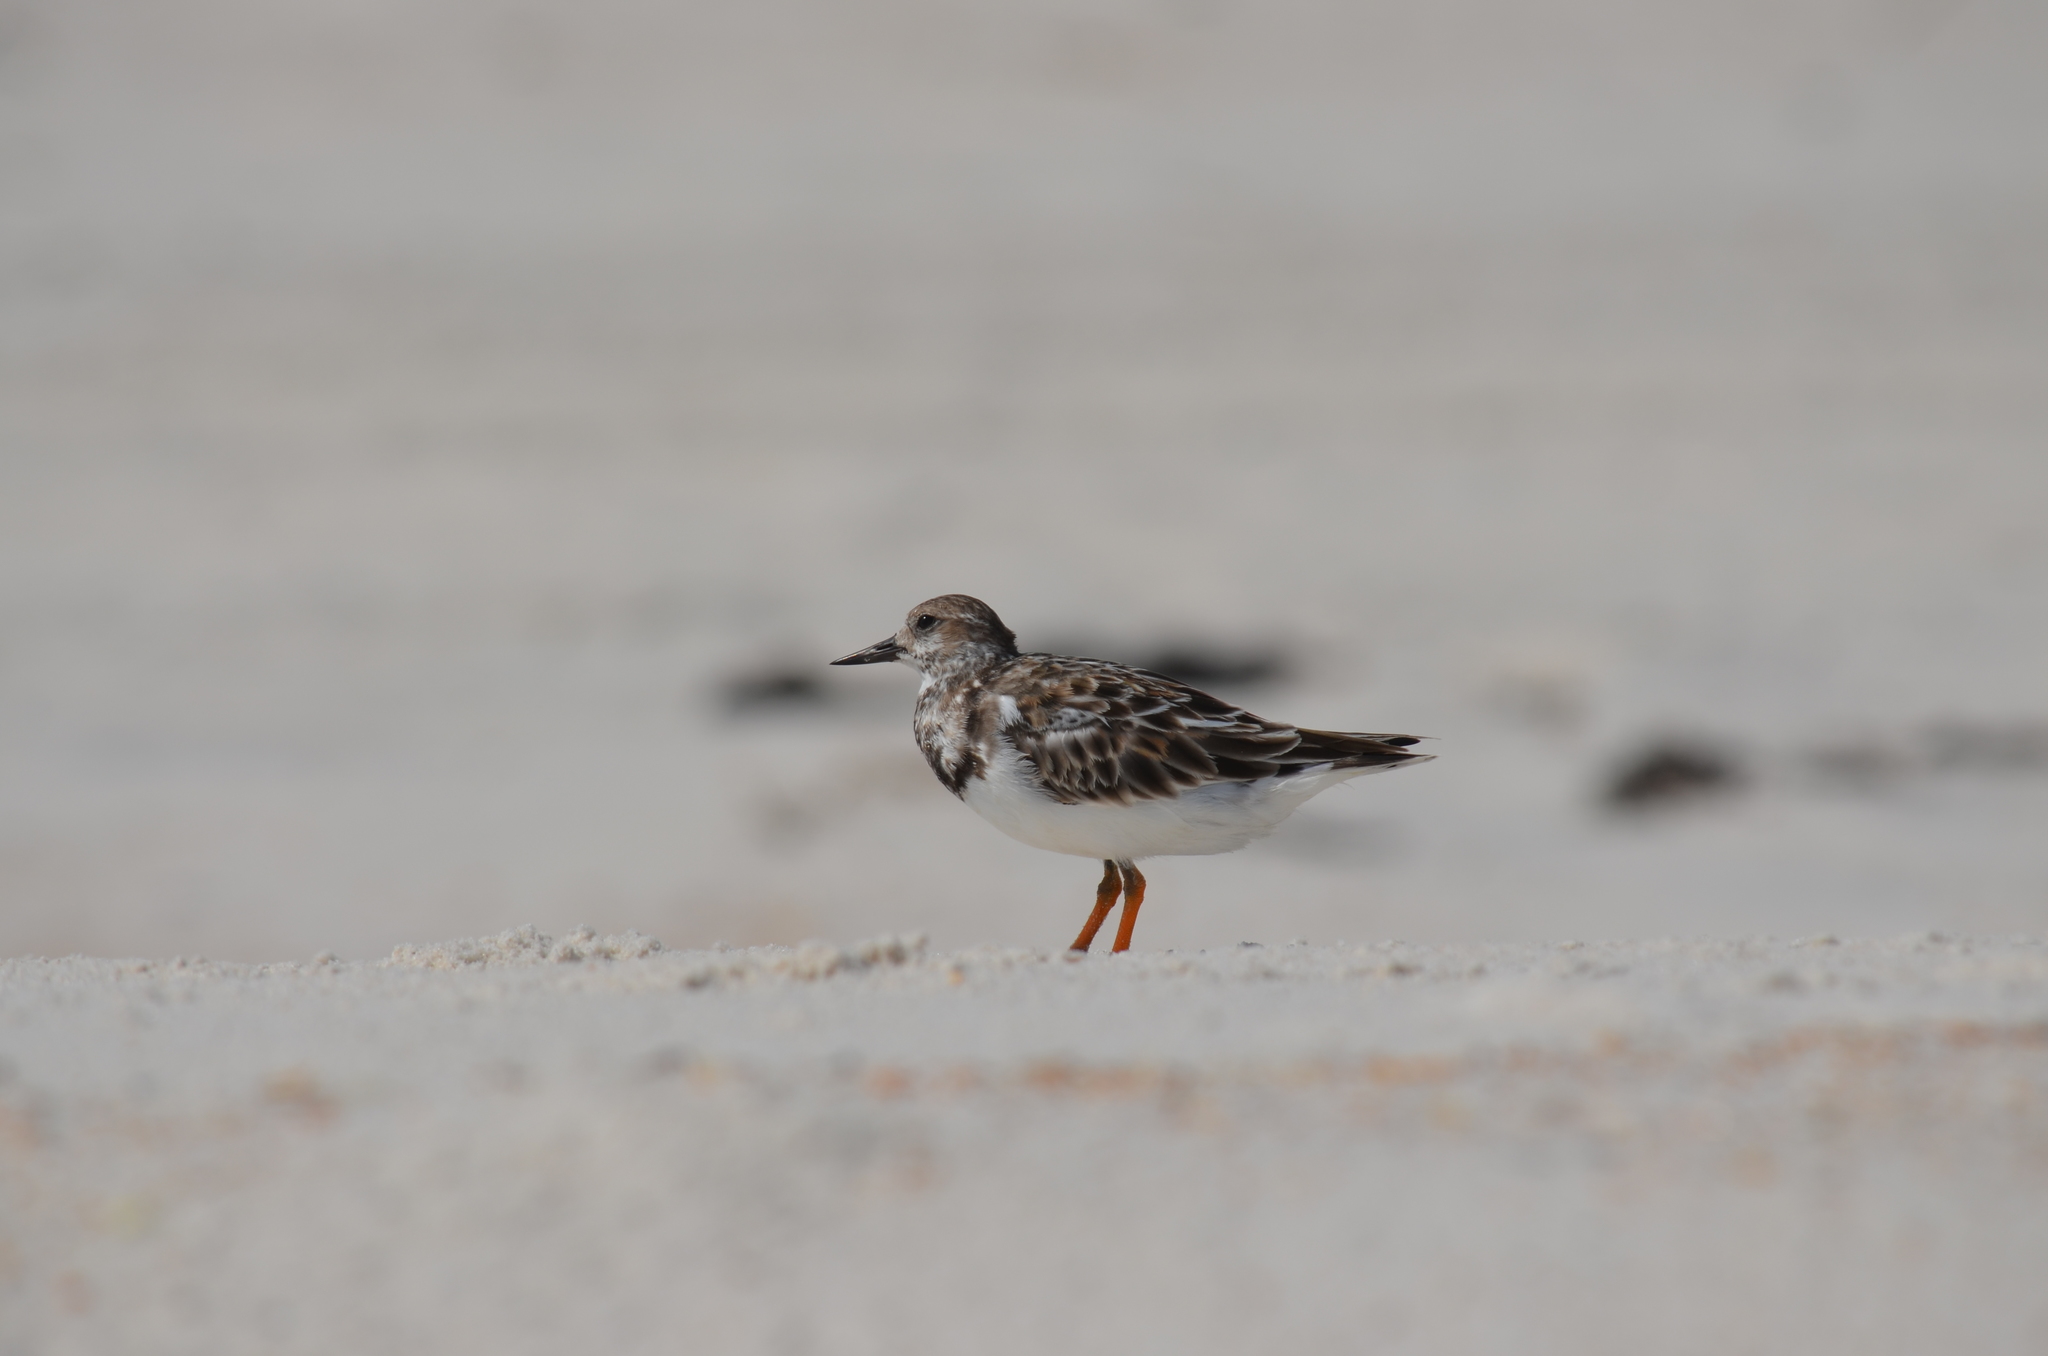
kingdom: Animalia
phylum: Chordata
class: Aves
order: Charadriiformes
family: Scolopacidae
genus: Arenaria
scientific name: Arenaria interpres
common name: Ruddy turnstone
